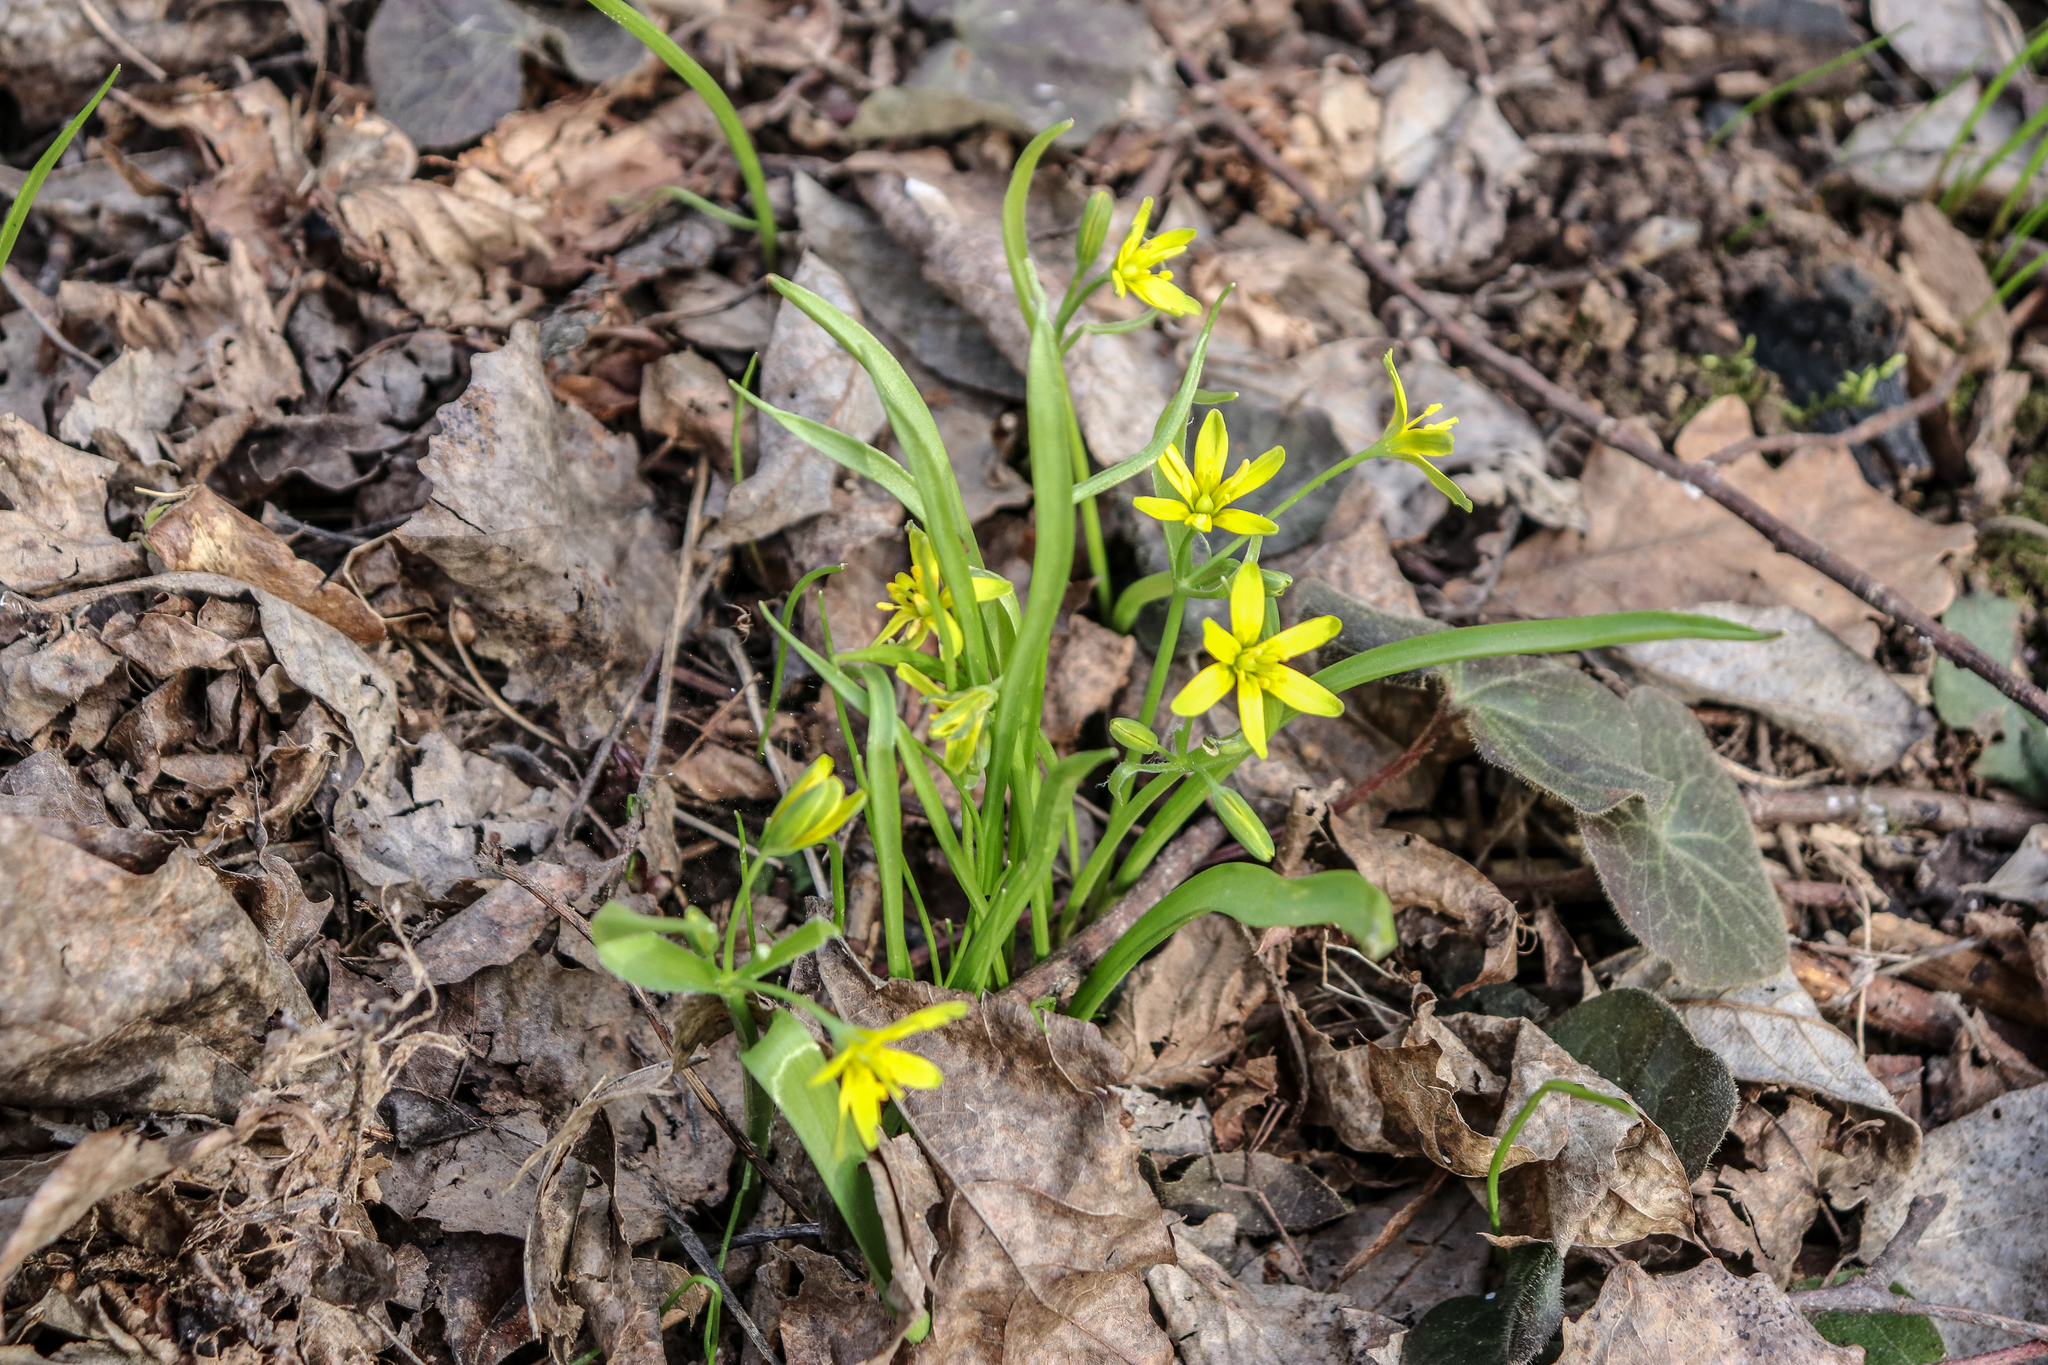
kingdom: Plantae
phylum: Tracheophyta
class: Liliopsida
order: Liliales
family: Liliaceae
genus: Gagea
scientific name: Gagea lutea
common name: Yellow star-of-bethlehem
